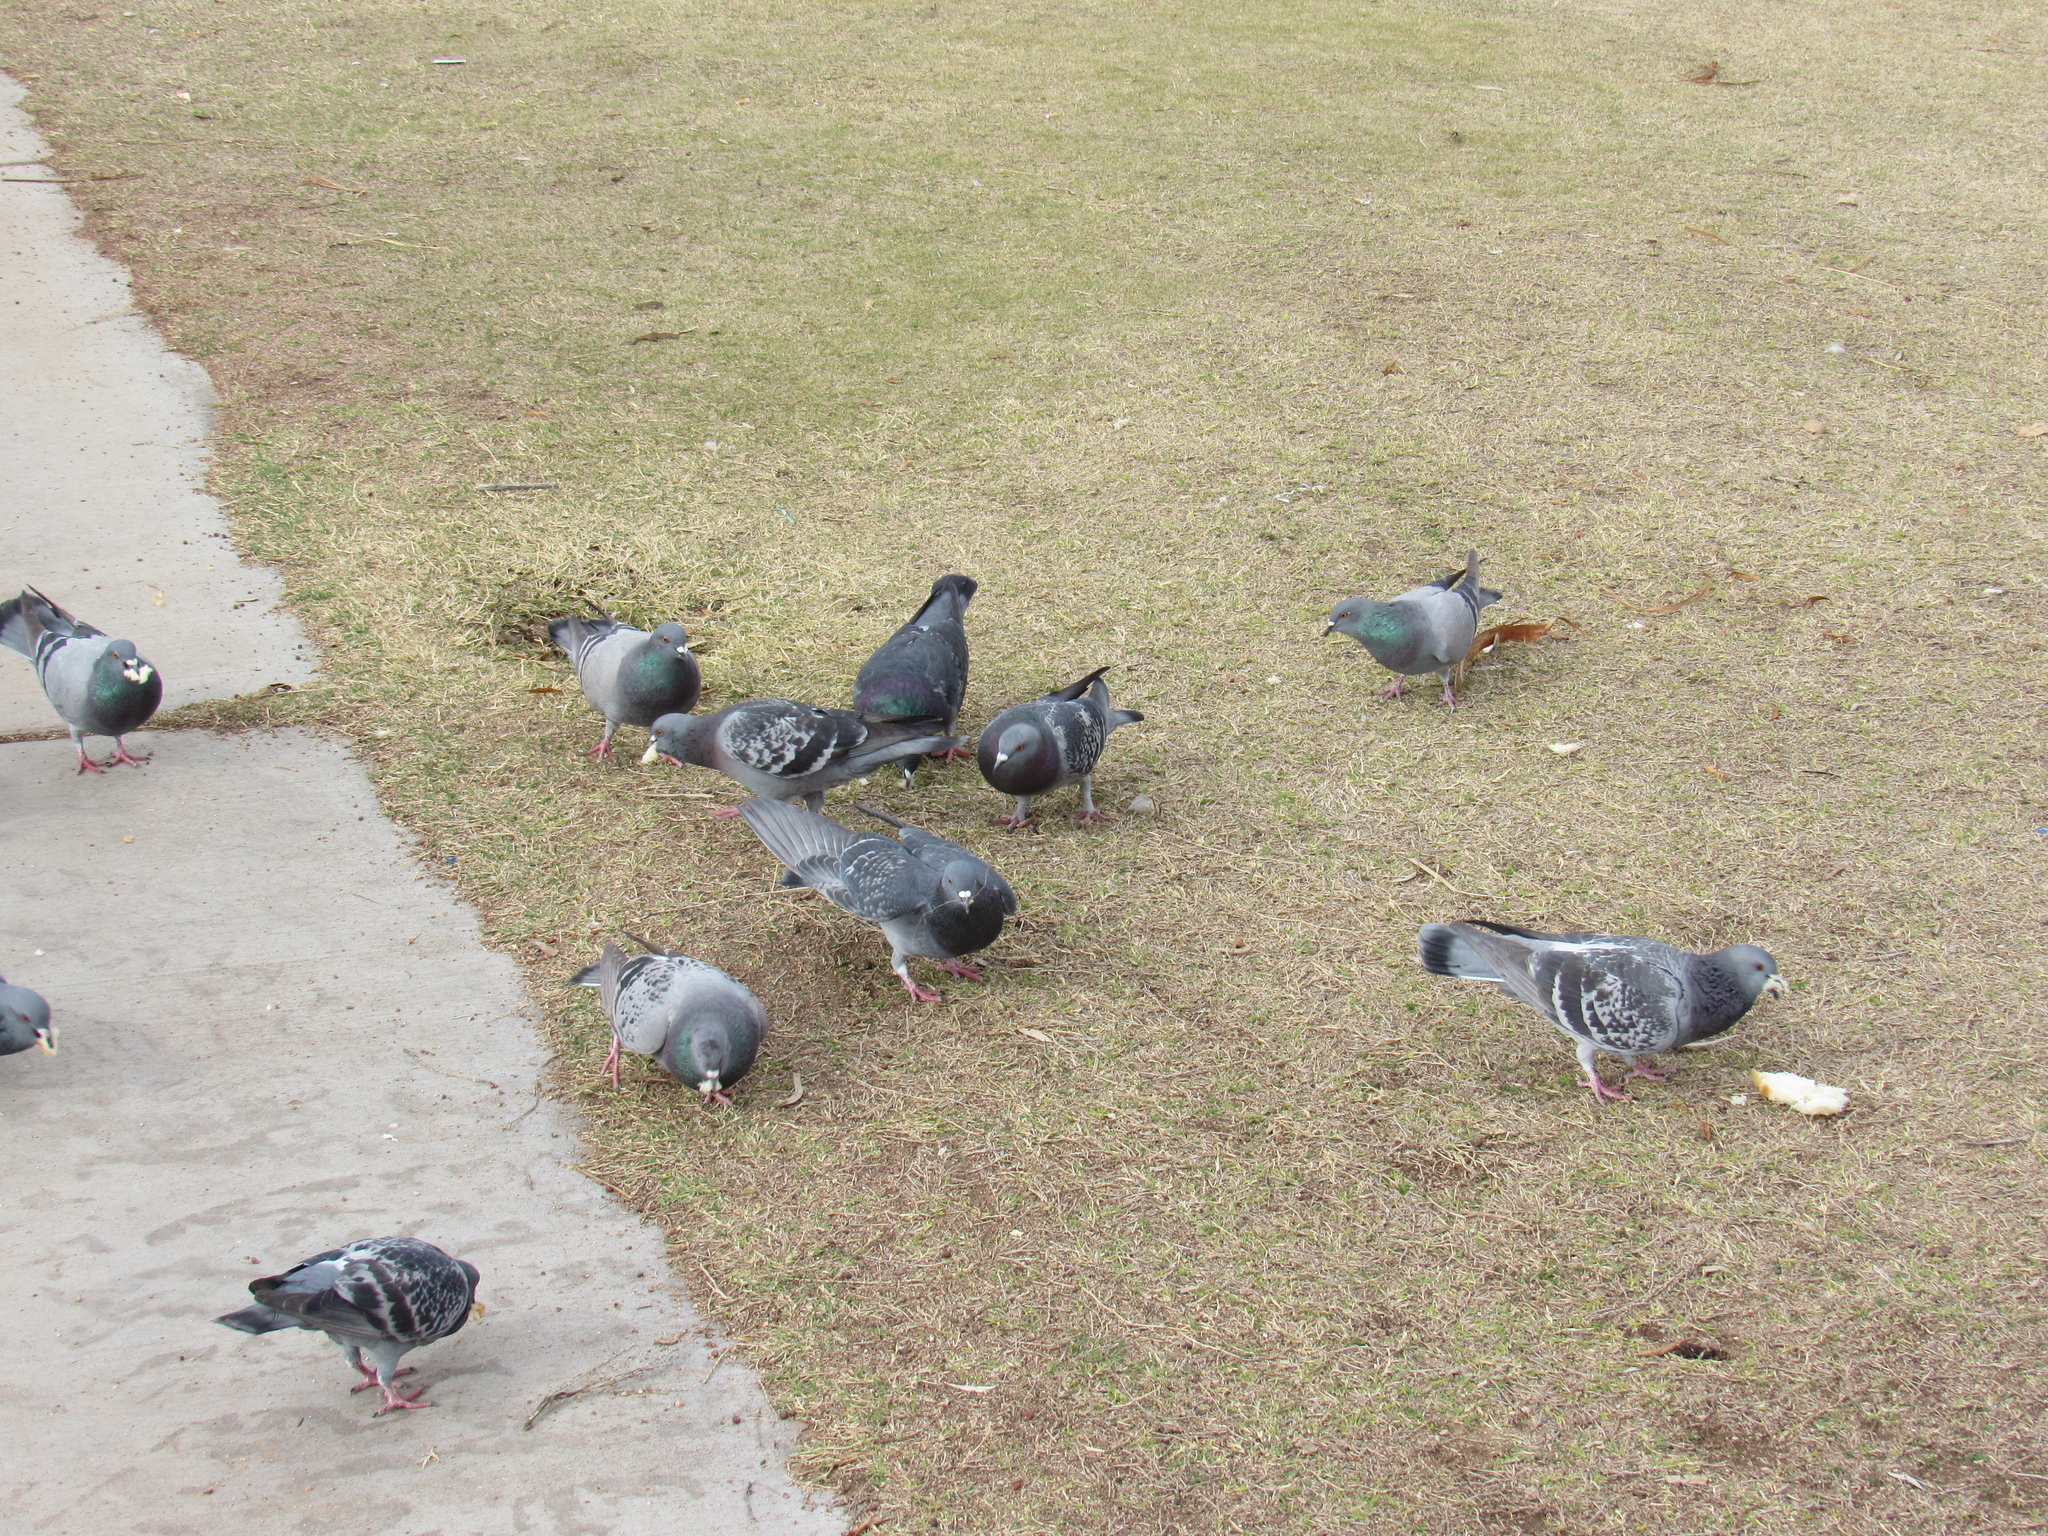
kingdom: Animalia
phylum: Chordata
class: Aves
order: Columbiformes
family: Columbidae
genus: Columba
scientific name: Columba livia
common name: Rock pigeon
